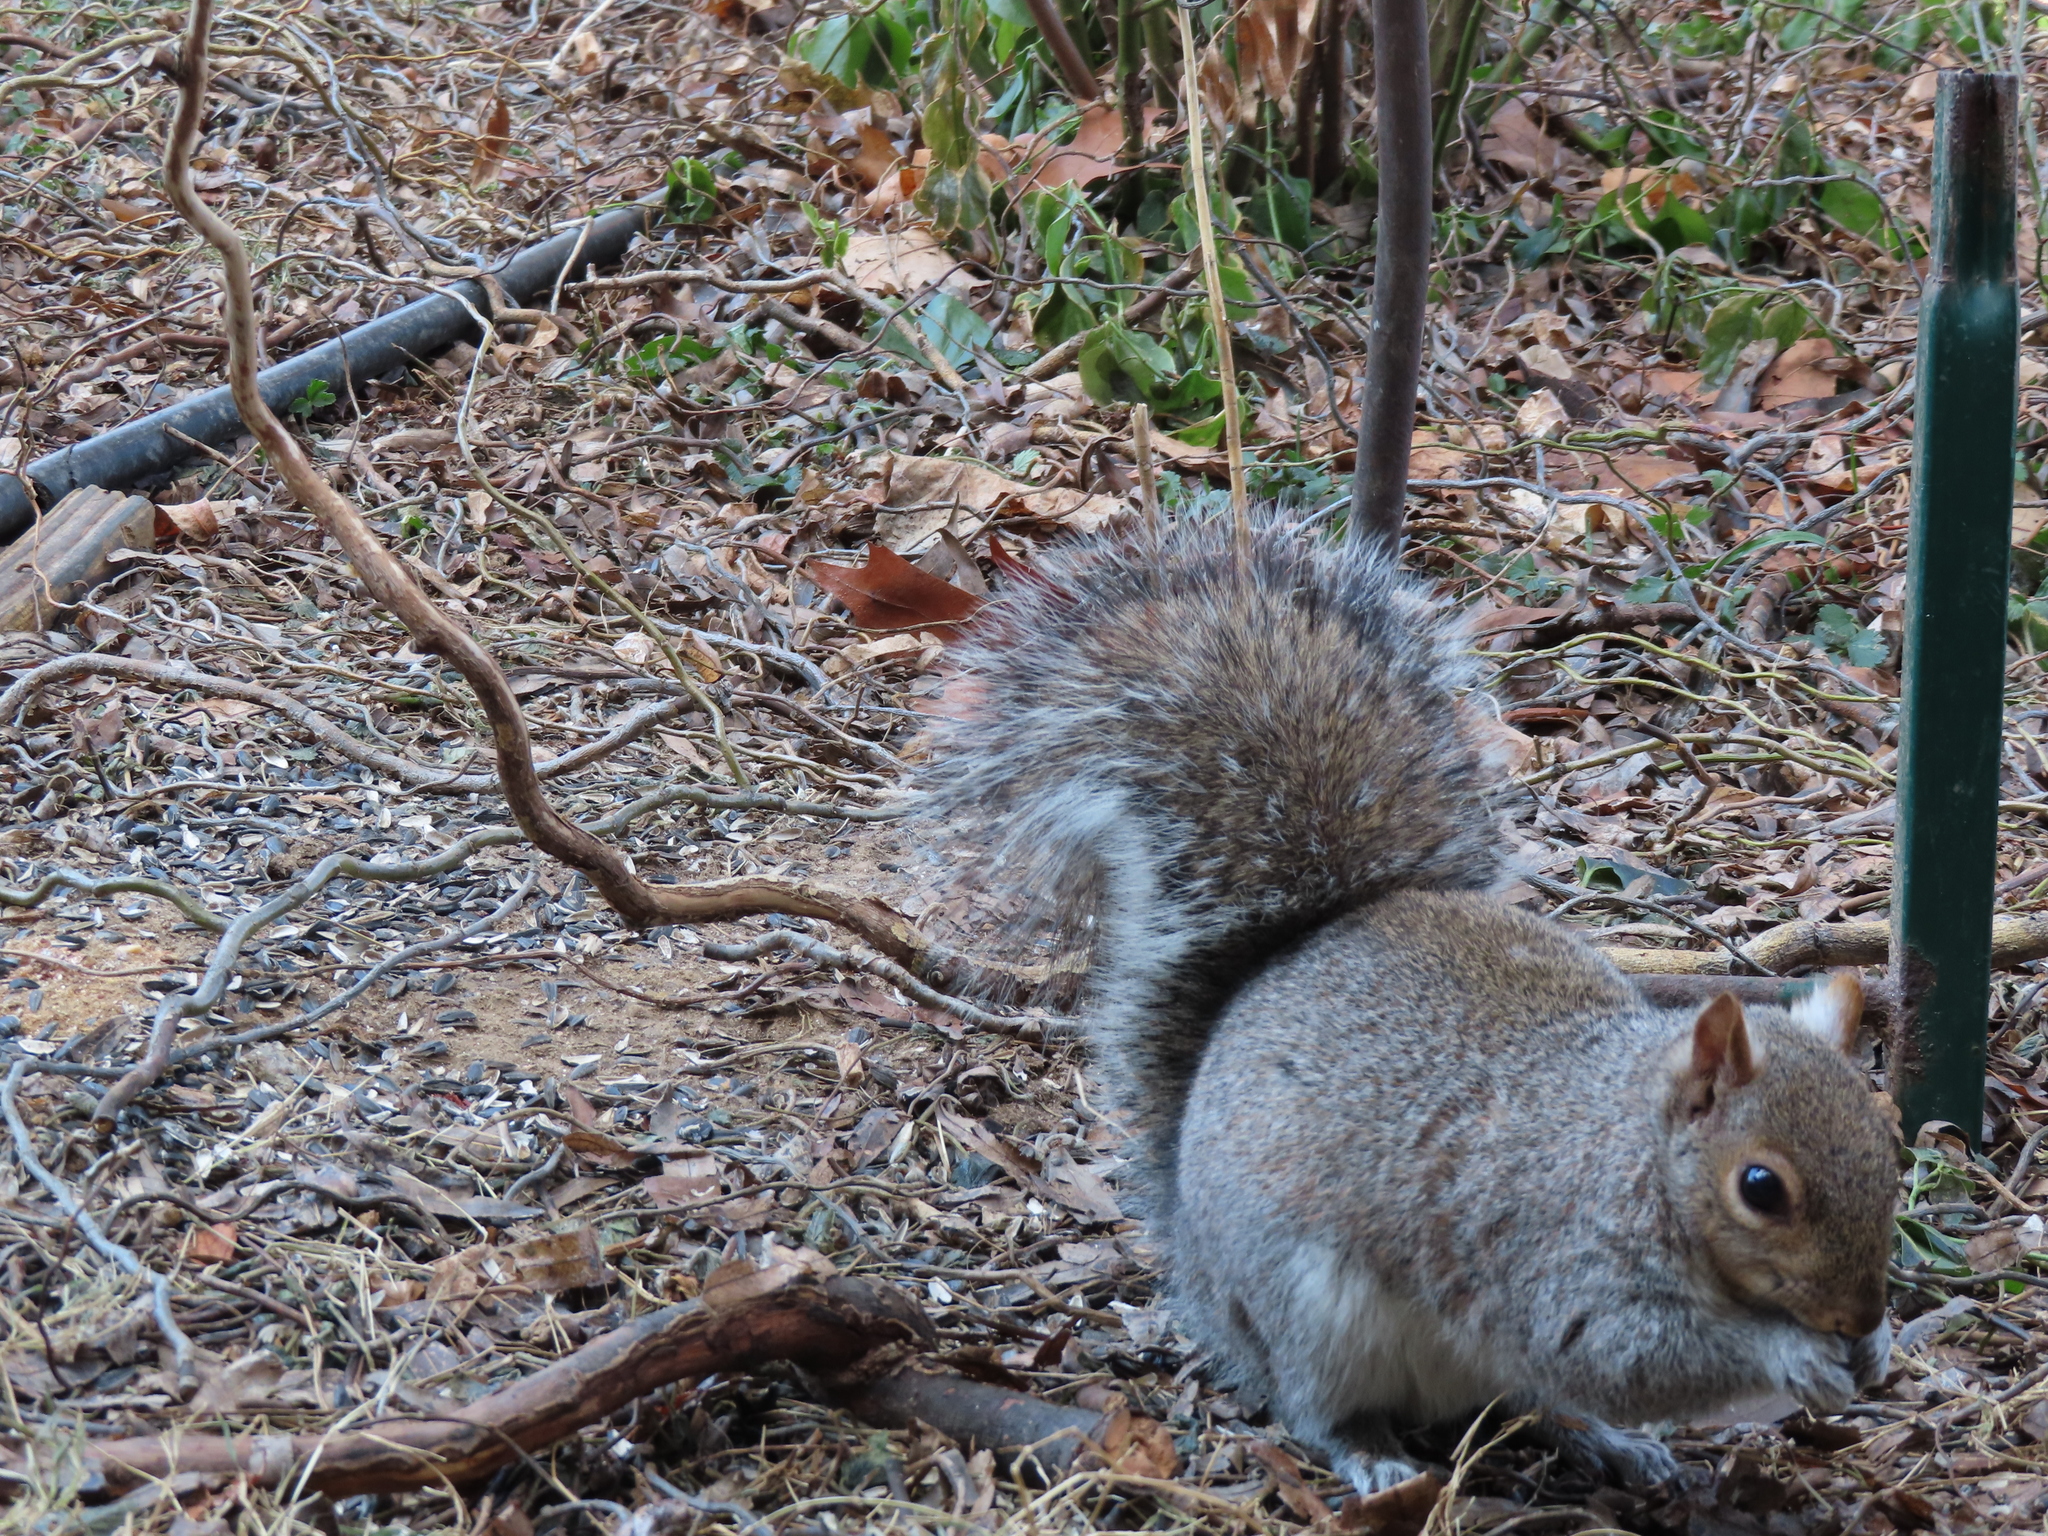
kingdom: Animalia
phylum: Chordata
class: Mammalia
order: Rodentia
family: Sciuridae
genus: Sciurus
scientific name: Sciurus carolinensis
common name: Eastern gray squirrel
